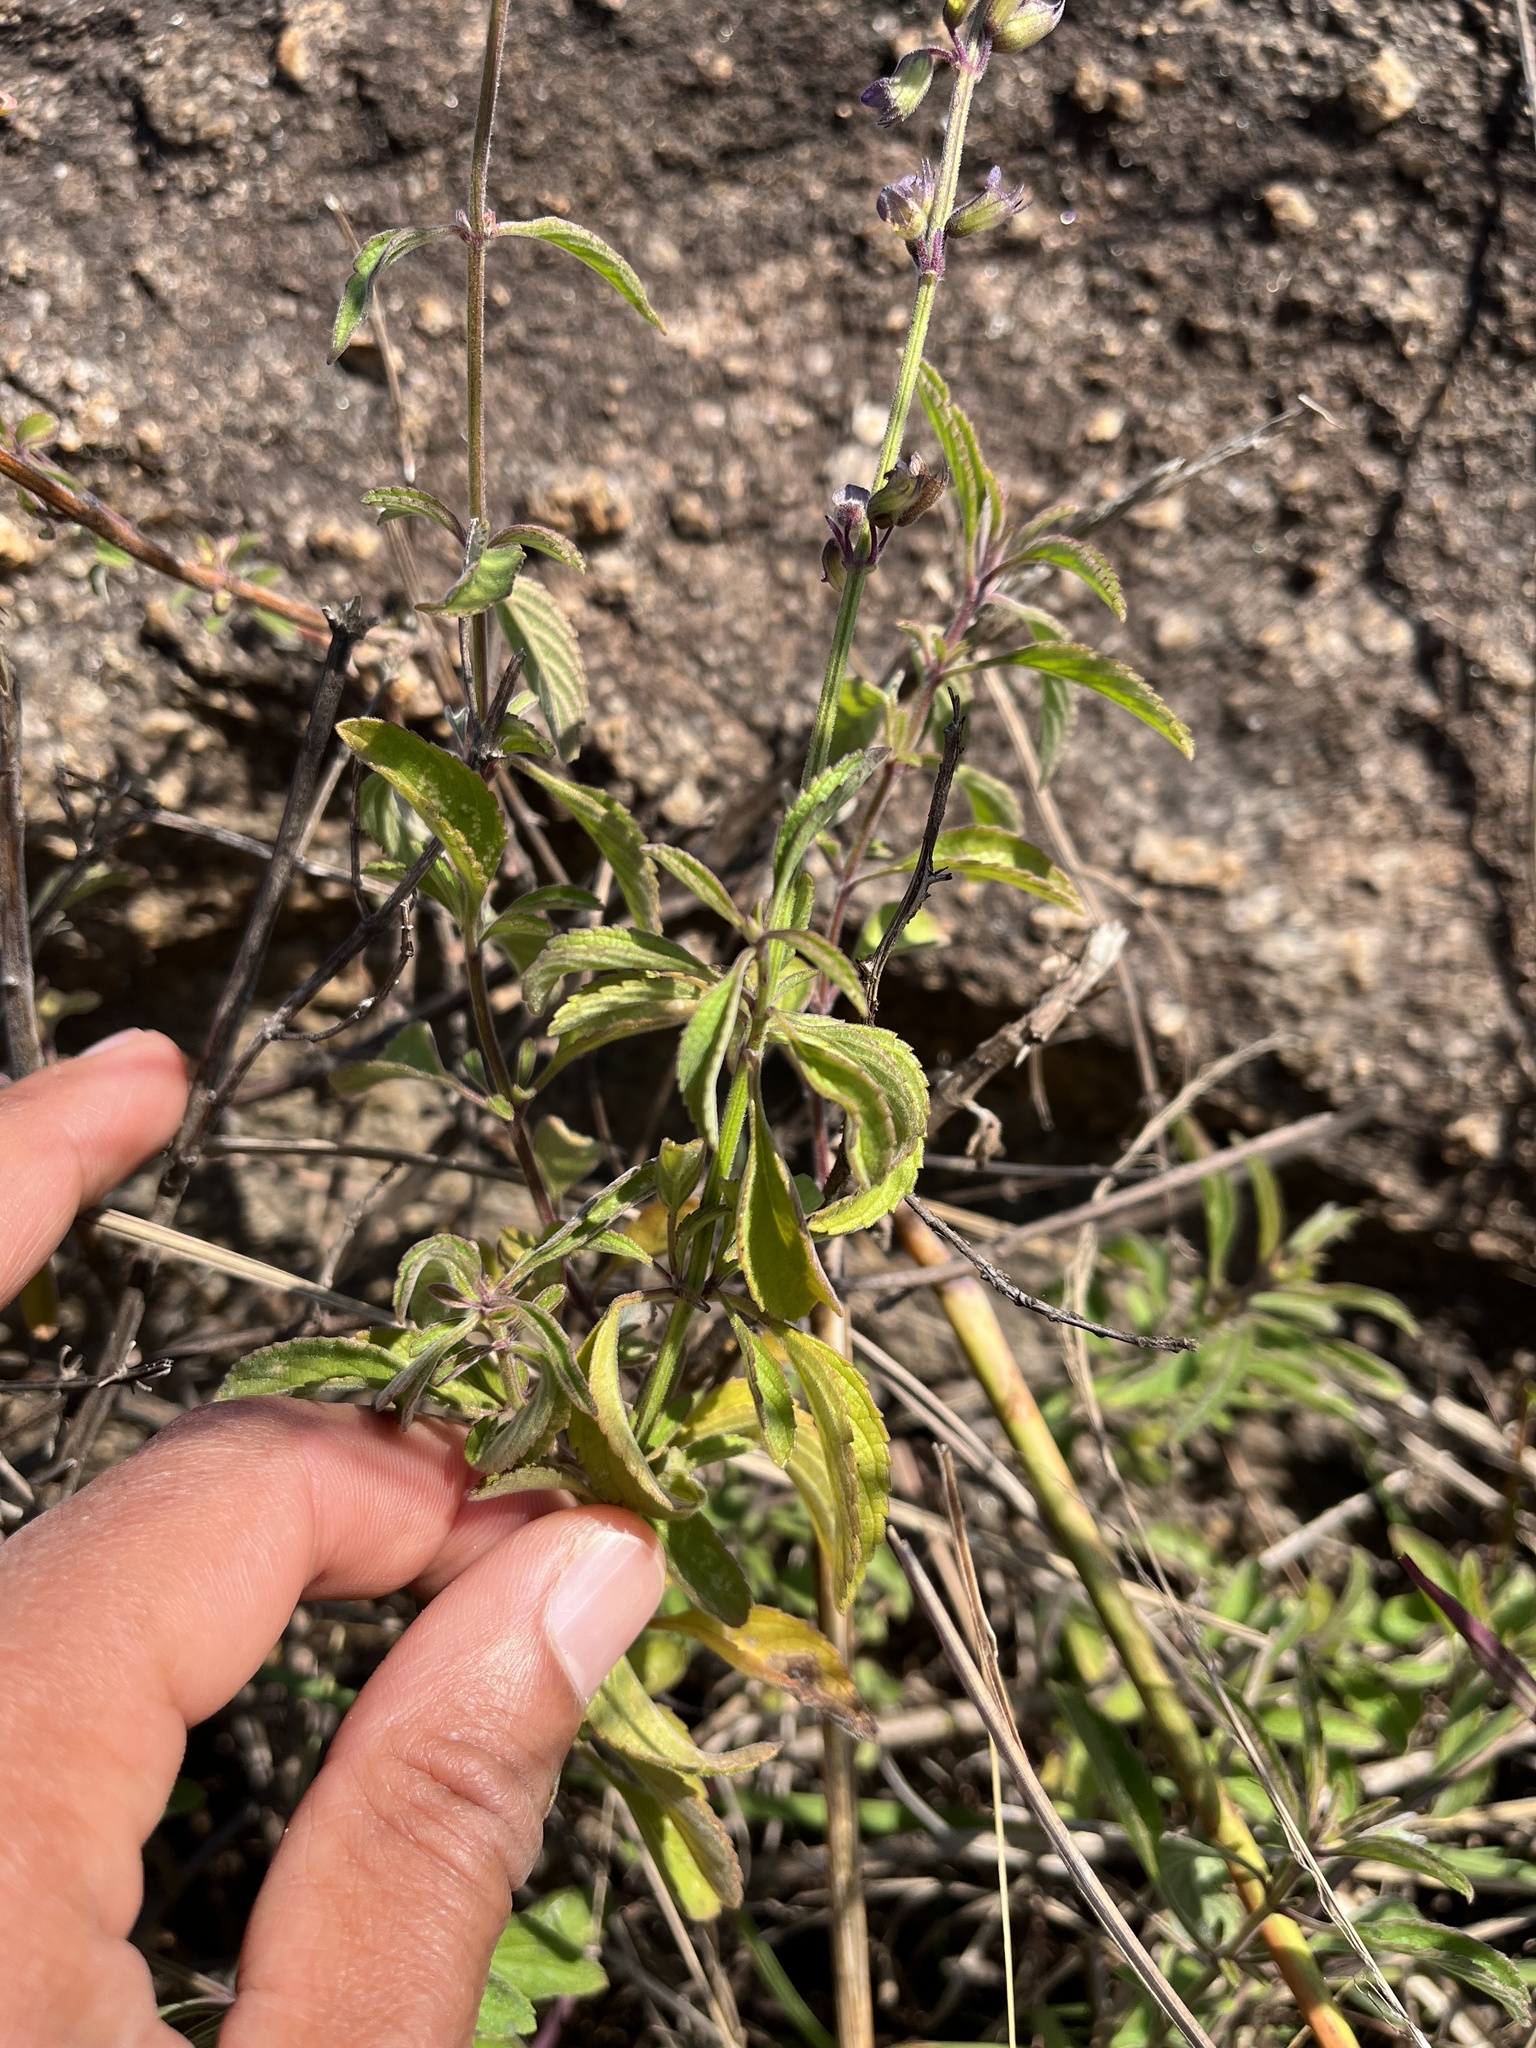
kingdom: Plantae
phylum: Tracheophyta
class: Magnoliopsida
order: Lamiales
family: Lamiaceae
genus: Syncolostemon
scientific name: Syncolostemon canescens
